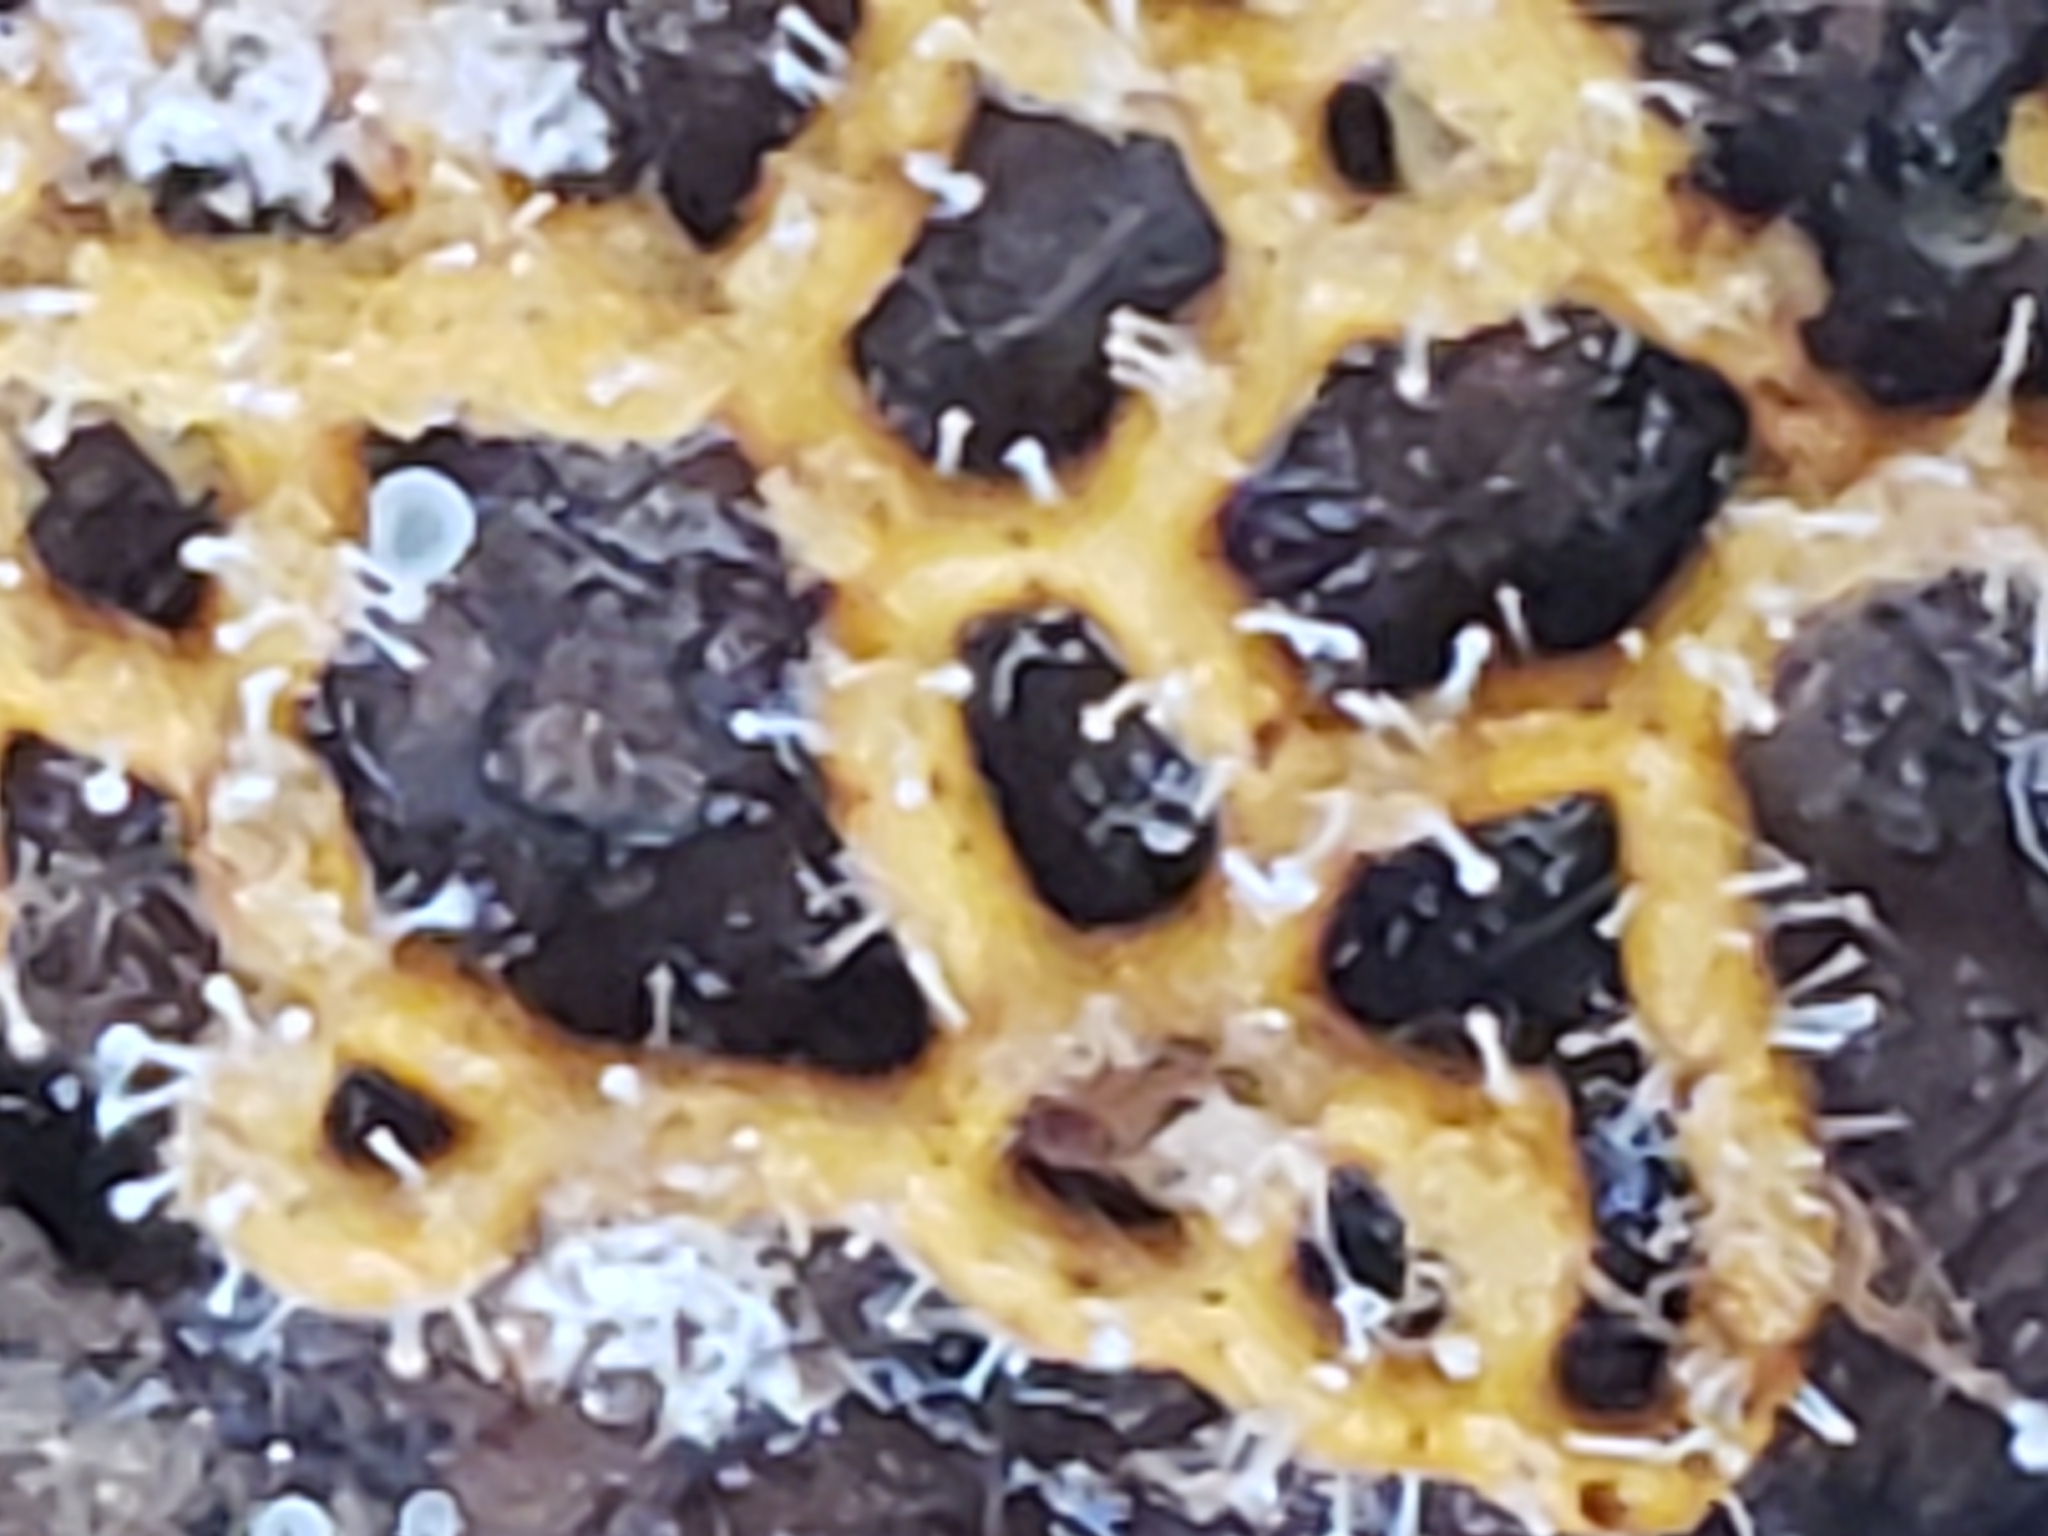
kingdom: Protozoa
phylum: Mycetozoa
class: Myxomycetes
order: Trichiales
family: Arcyriaceae
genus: Hemitrichia
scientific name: Hemitrichia serpula
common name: Pretzel slime mold
